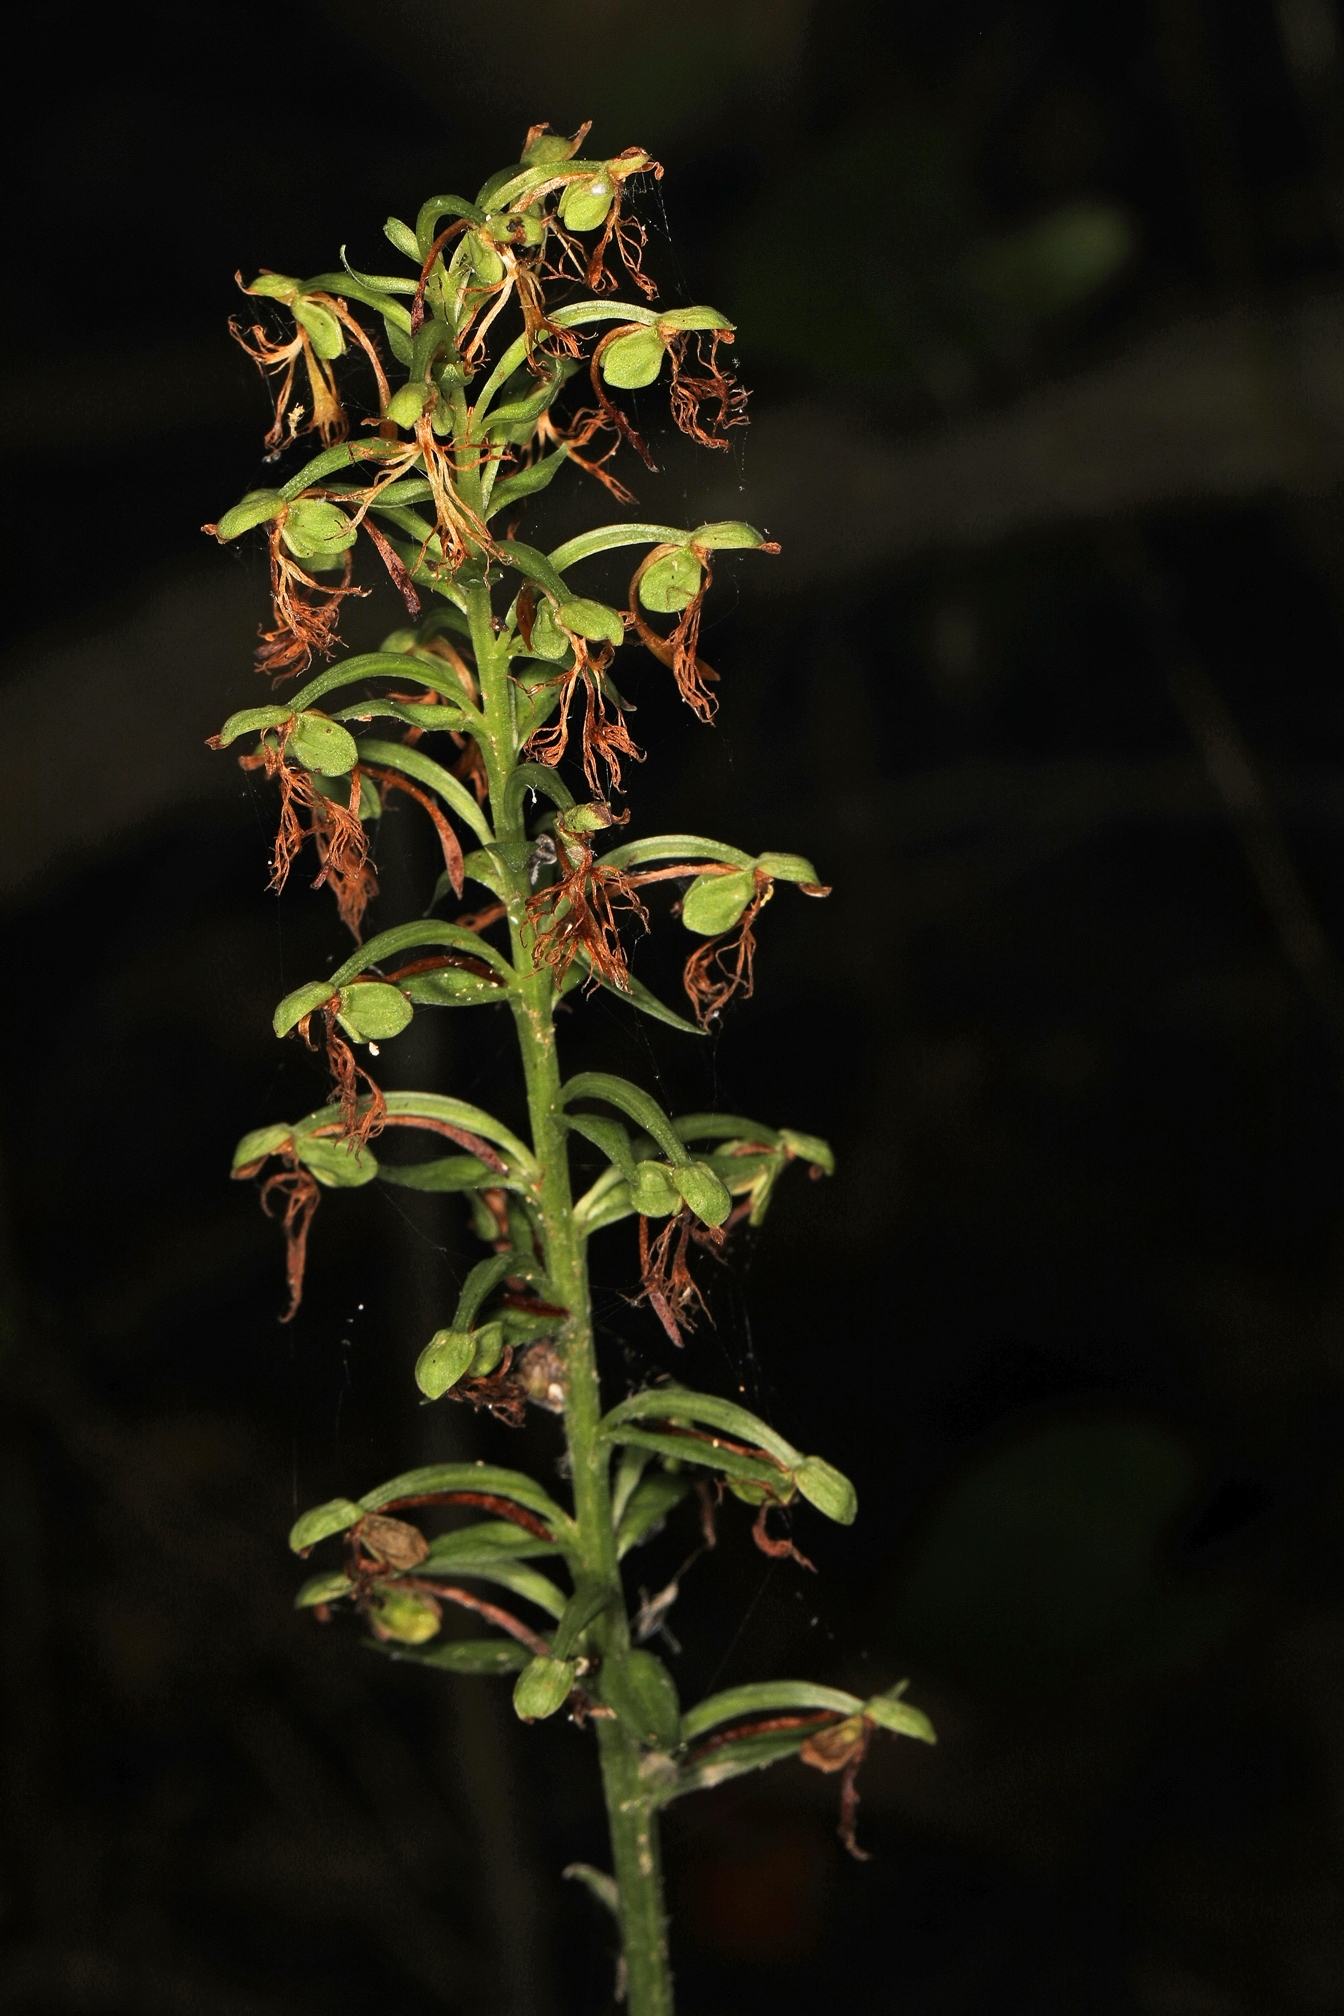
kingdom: Plantae
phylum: Tracheophyta
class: Liliopsida
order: Asparagales
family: Orchidaceae
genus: Platanthera
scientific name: Platanthera lacera
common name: Green fringed orchid
